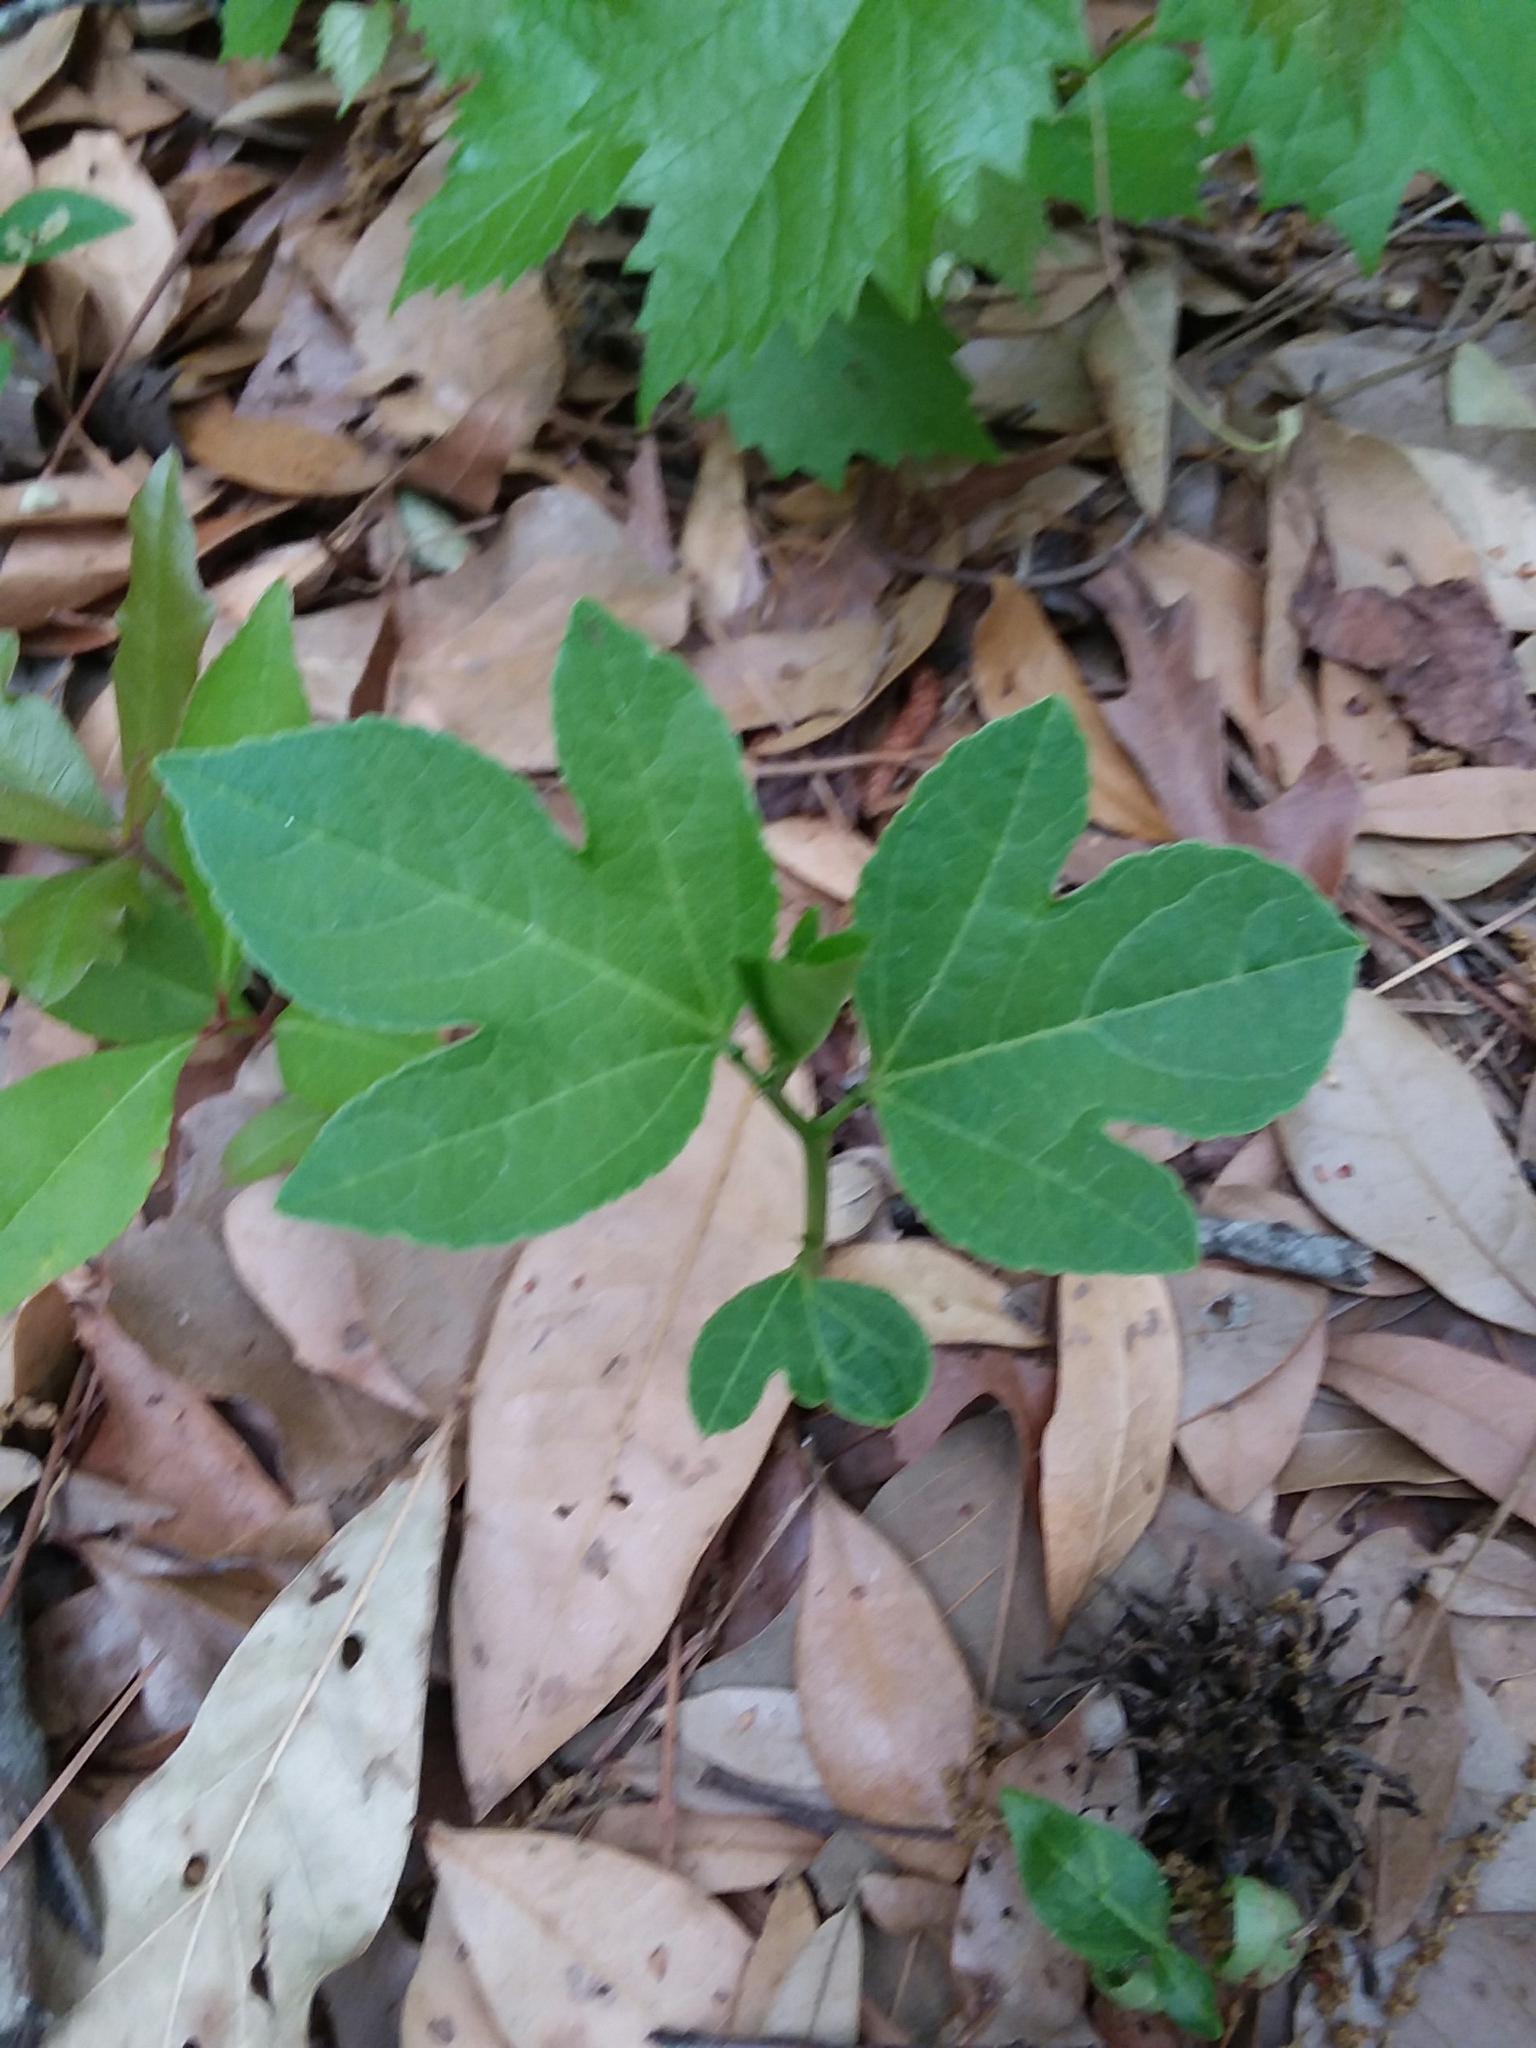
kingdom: Plantae
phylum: Tracheophyta
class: Magnoliopsida
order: Malpighiales
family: Passifloraceae
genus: Passiflora
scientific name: Passiflora incarnata
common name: Apricot-vine
